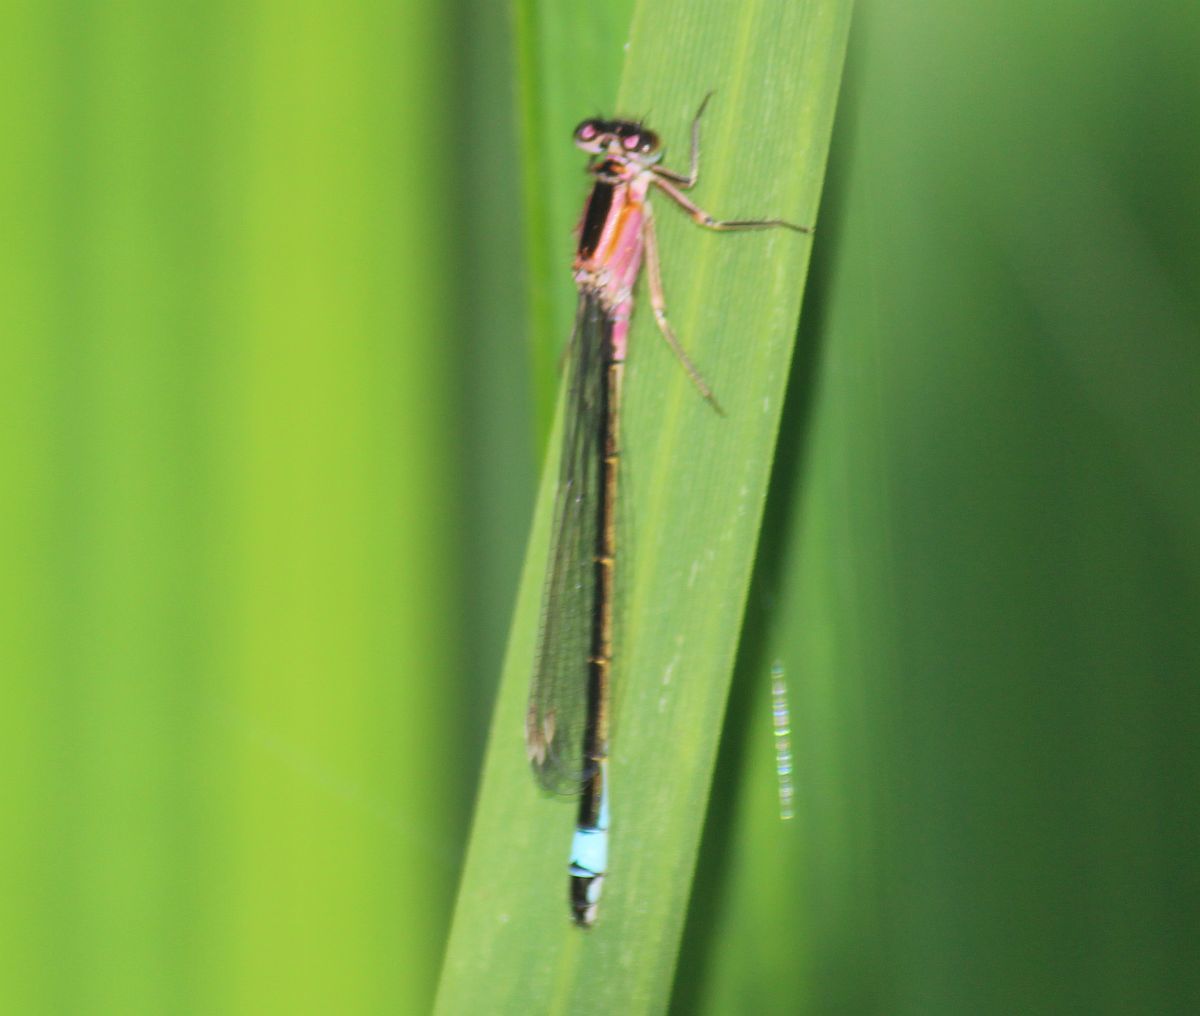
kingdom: Animalia
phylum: Arthropoda
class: Insecta
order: Odonata
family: Coenagrionidae
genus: Ischnura
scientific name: Ischnura elegans
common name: Blue-tailed damselfly
